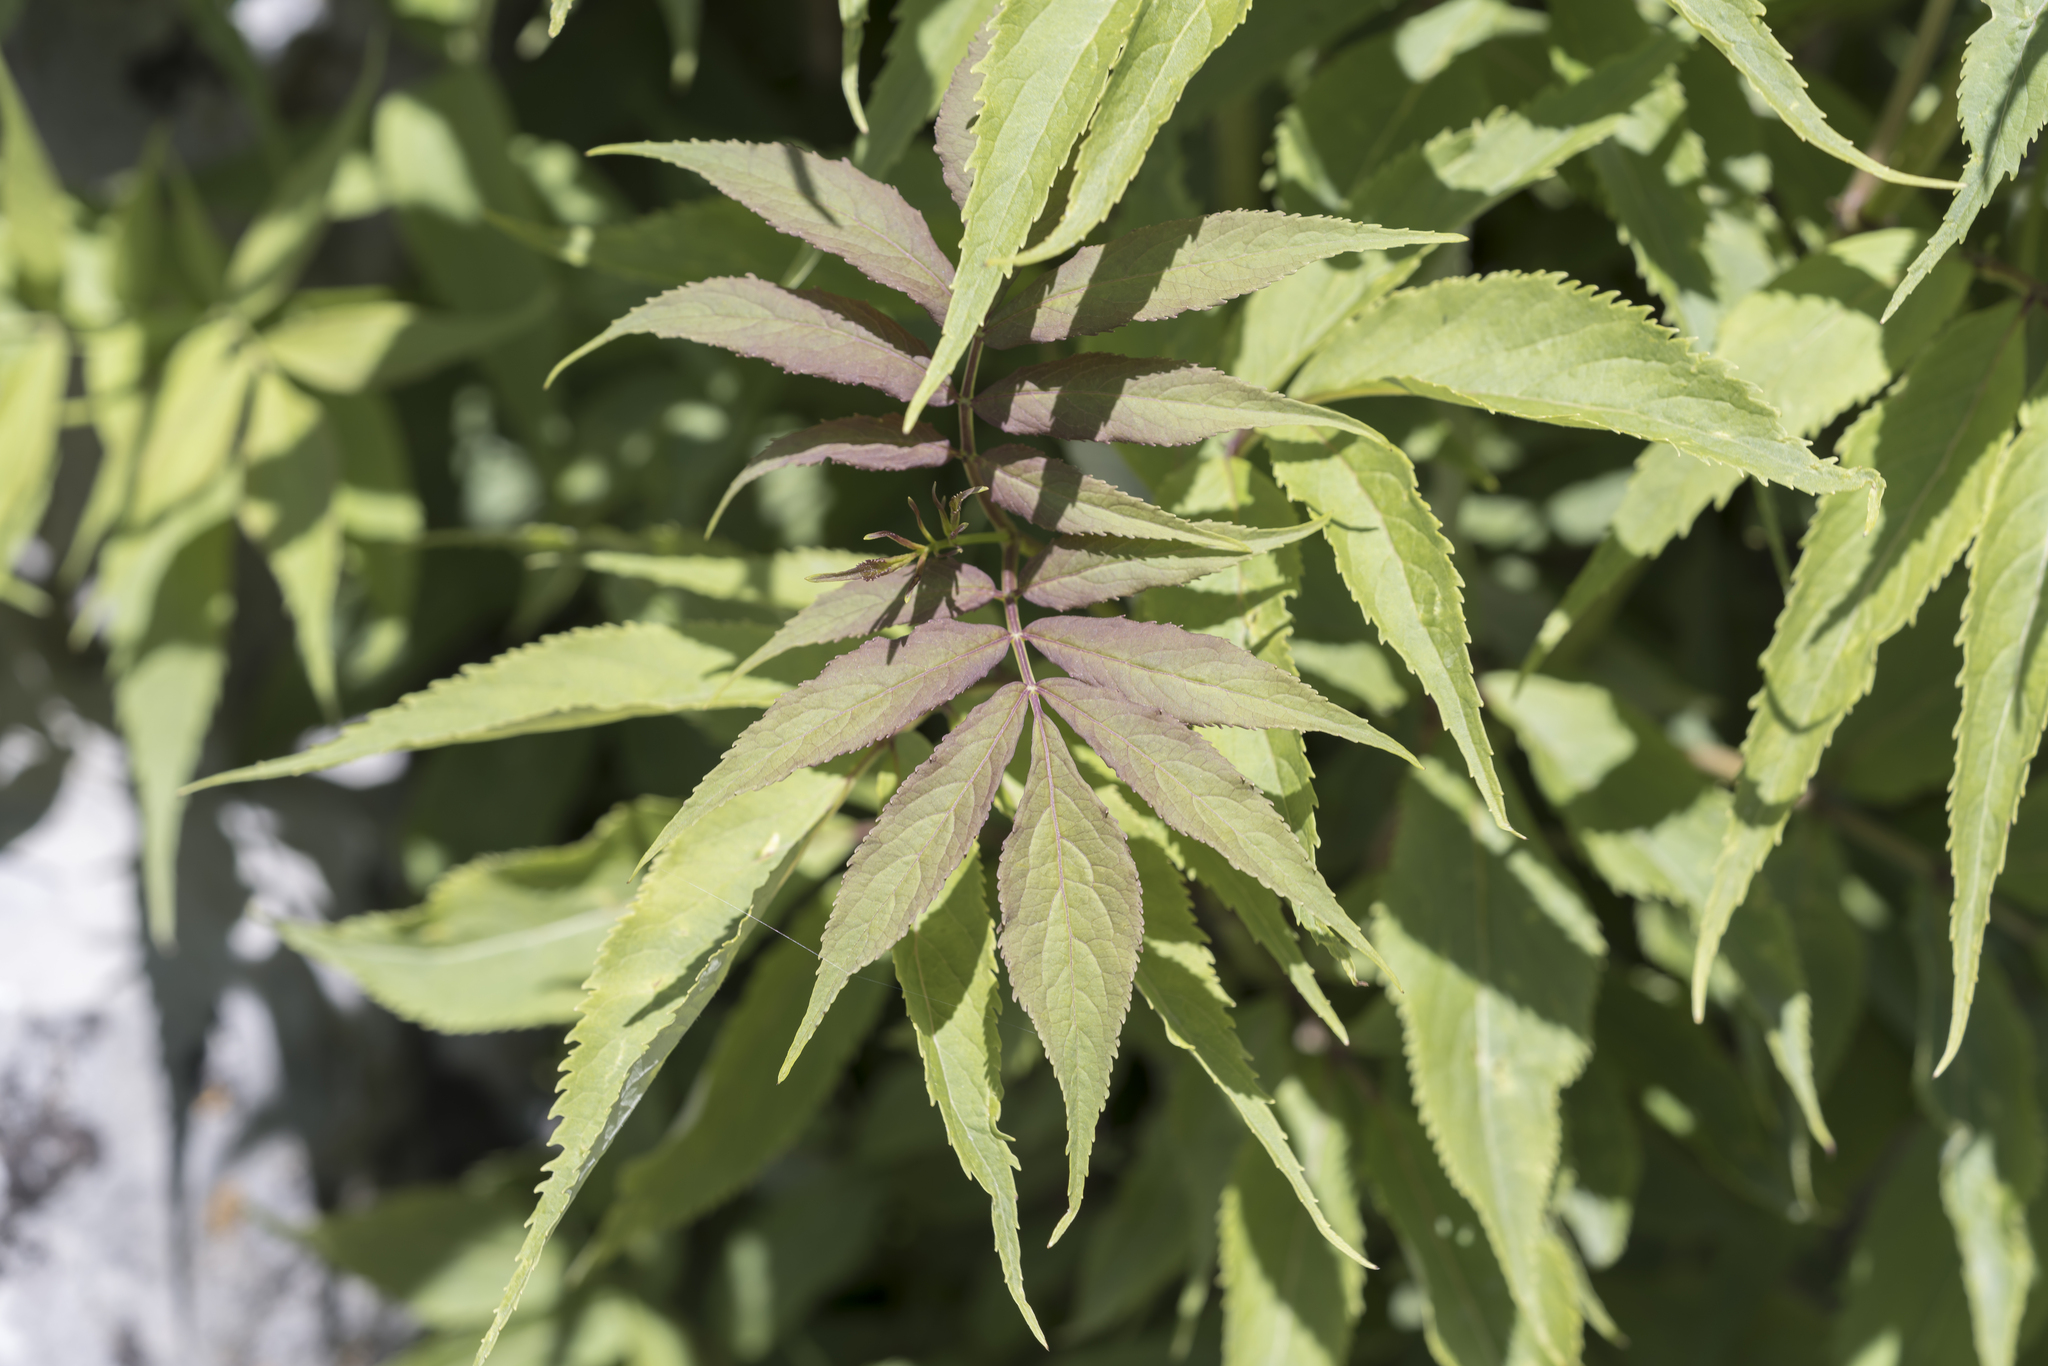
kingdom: Plantae
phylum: Tracheophyta
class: Magnoliopsida
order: Dipsacales
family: Viburnaceae
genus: Sambucus
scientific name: Sambucus racemosa
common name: Red-berried elder
